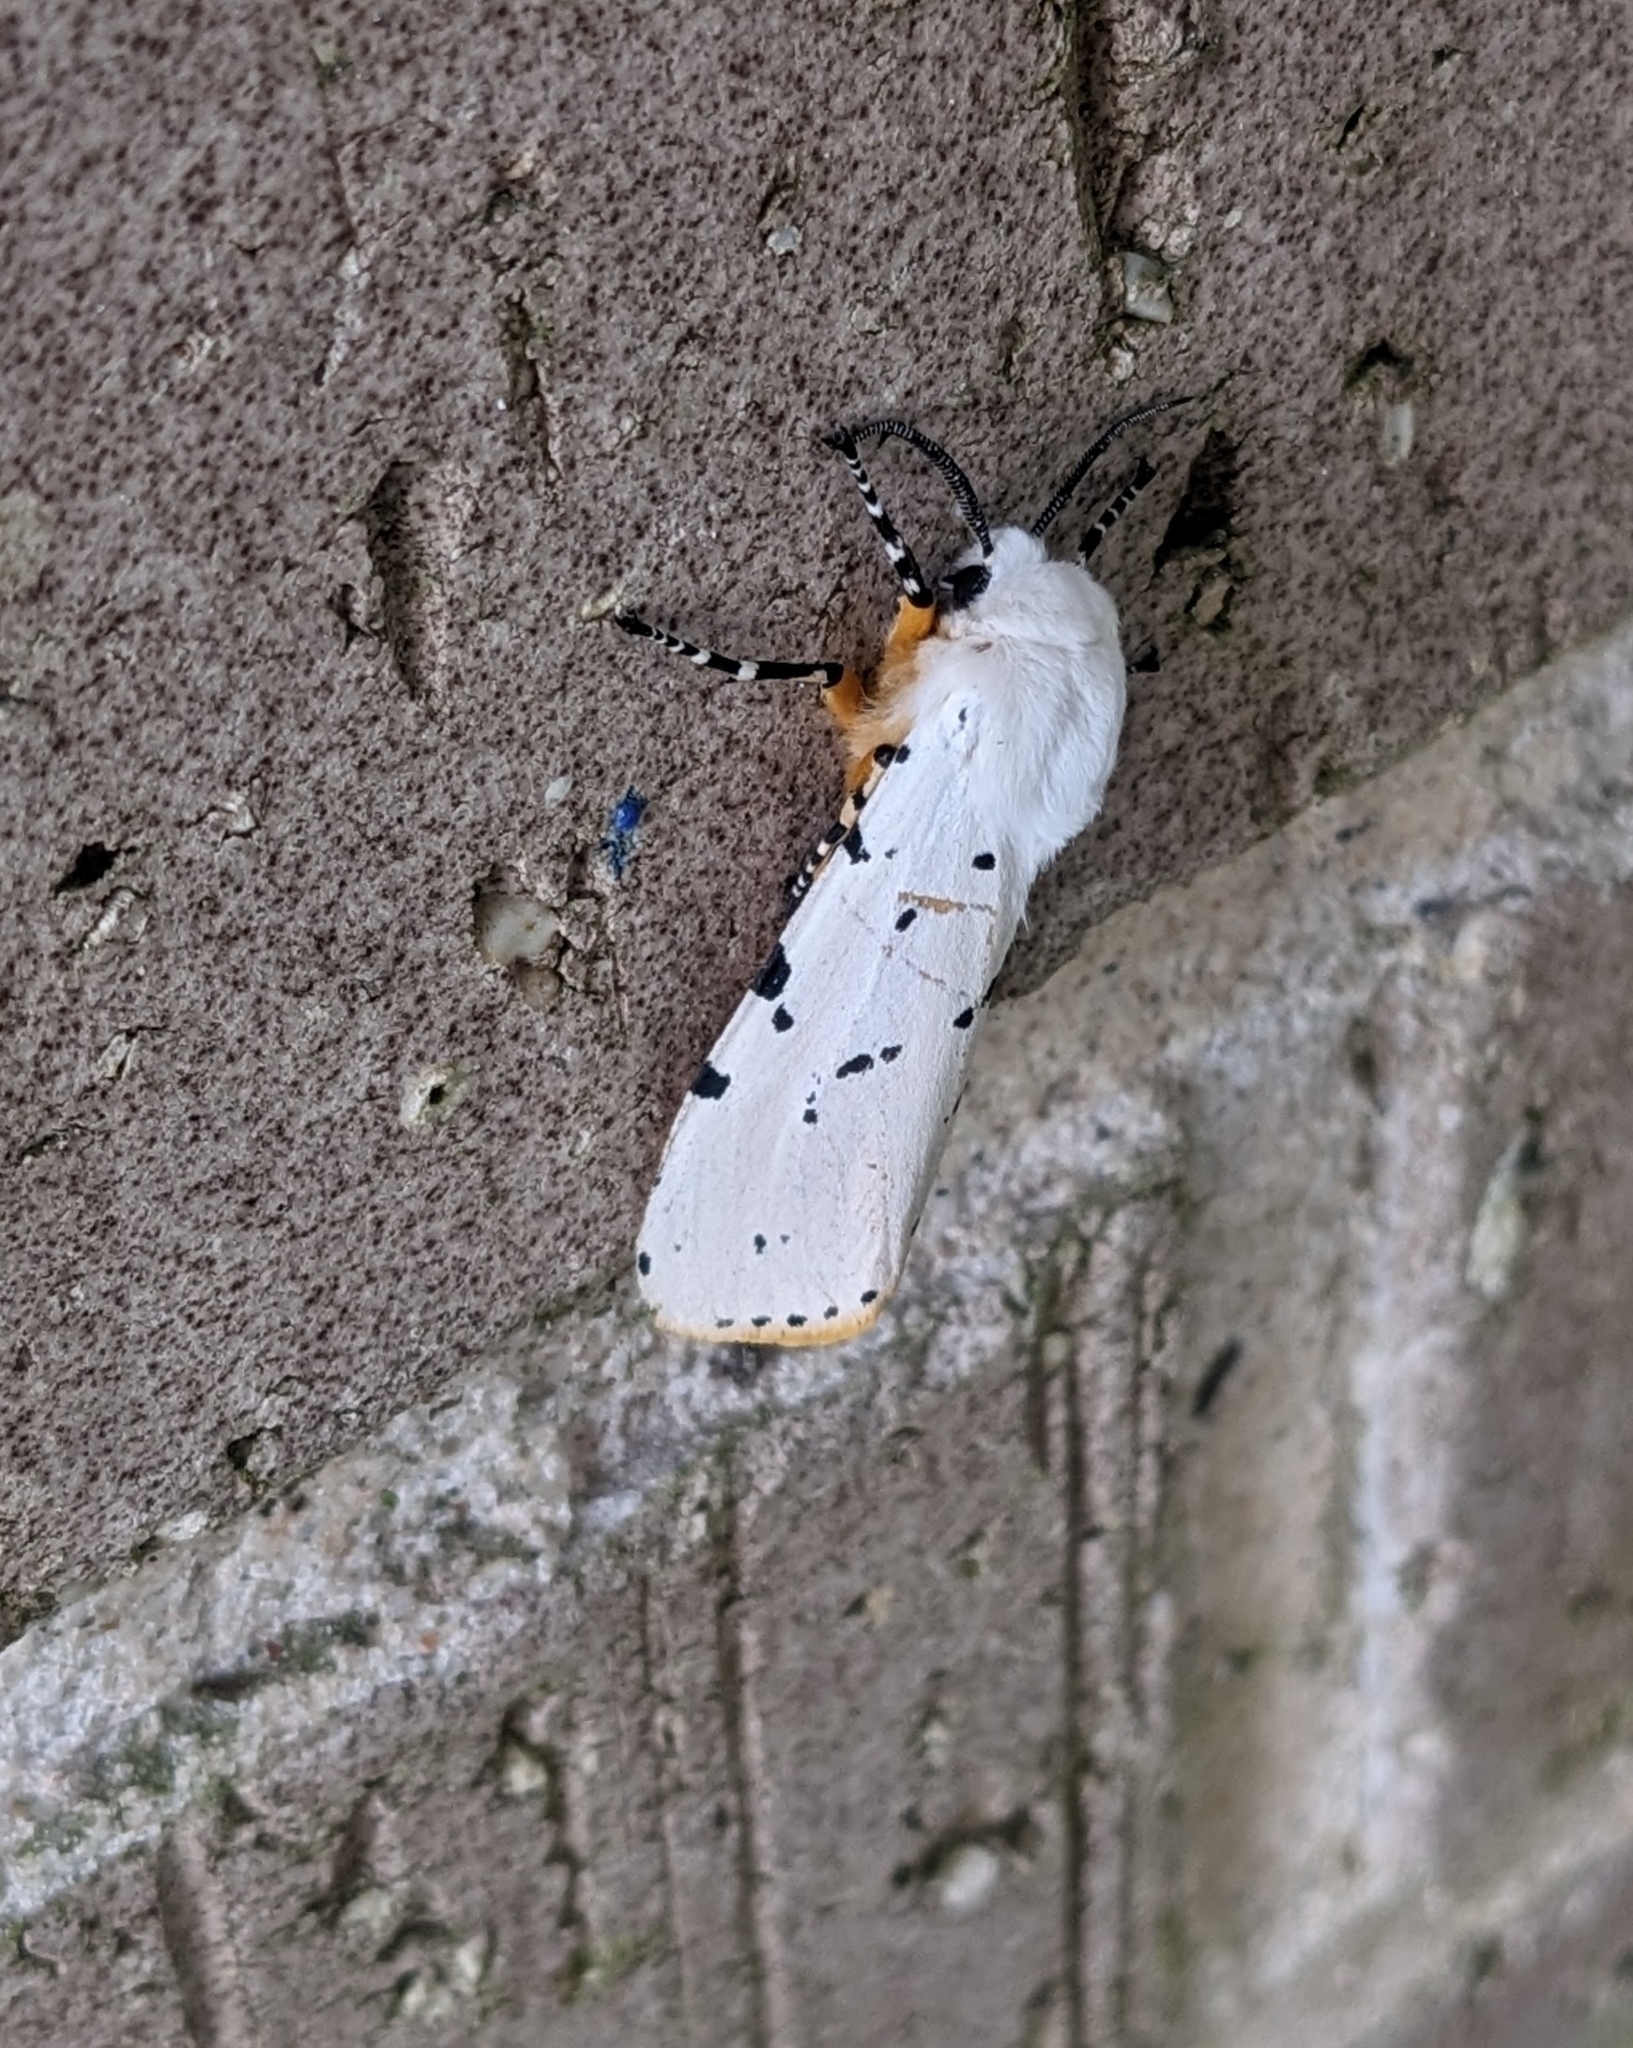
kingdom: Animalia
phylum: Arthropoda
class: Insecta
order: Lepidoptera
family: Erebidae
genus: Estigmene
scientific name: Estigmene acrea
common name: Salt marsh moth
